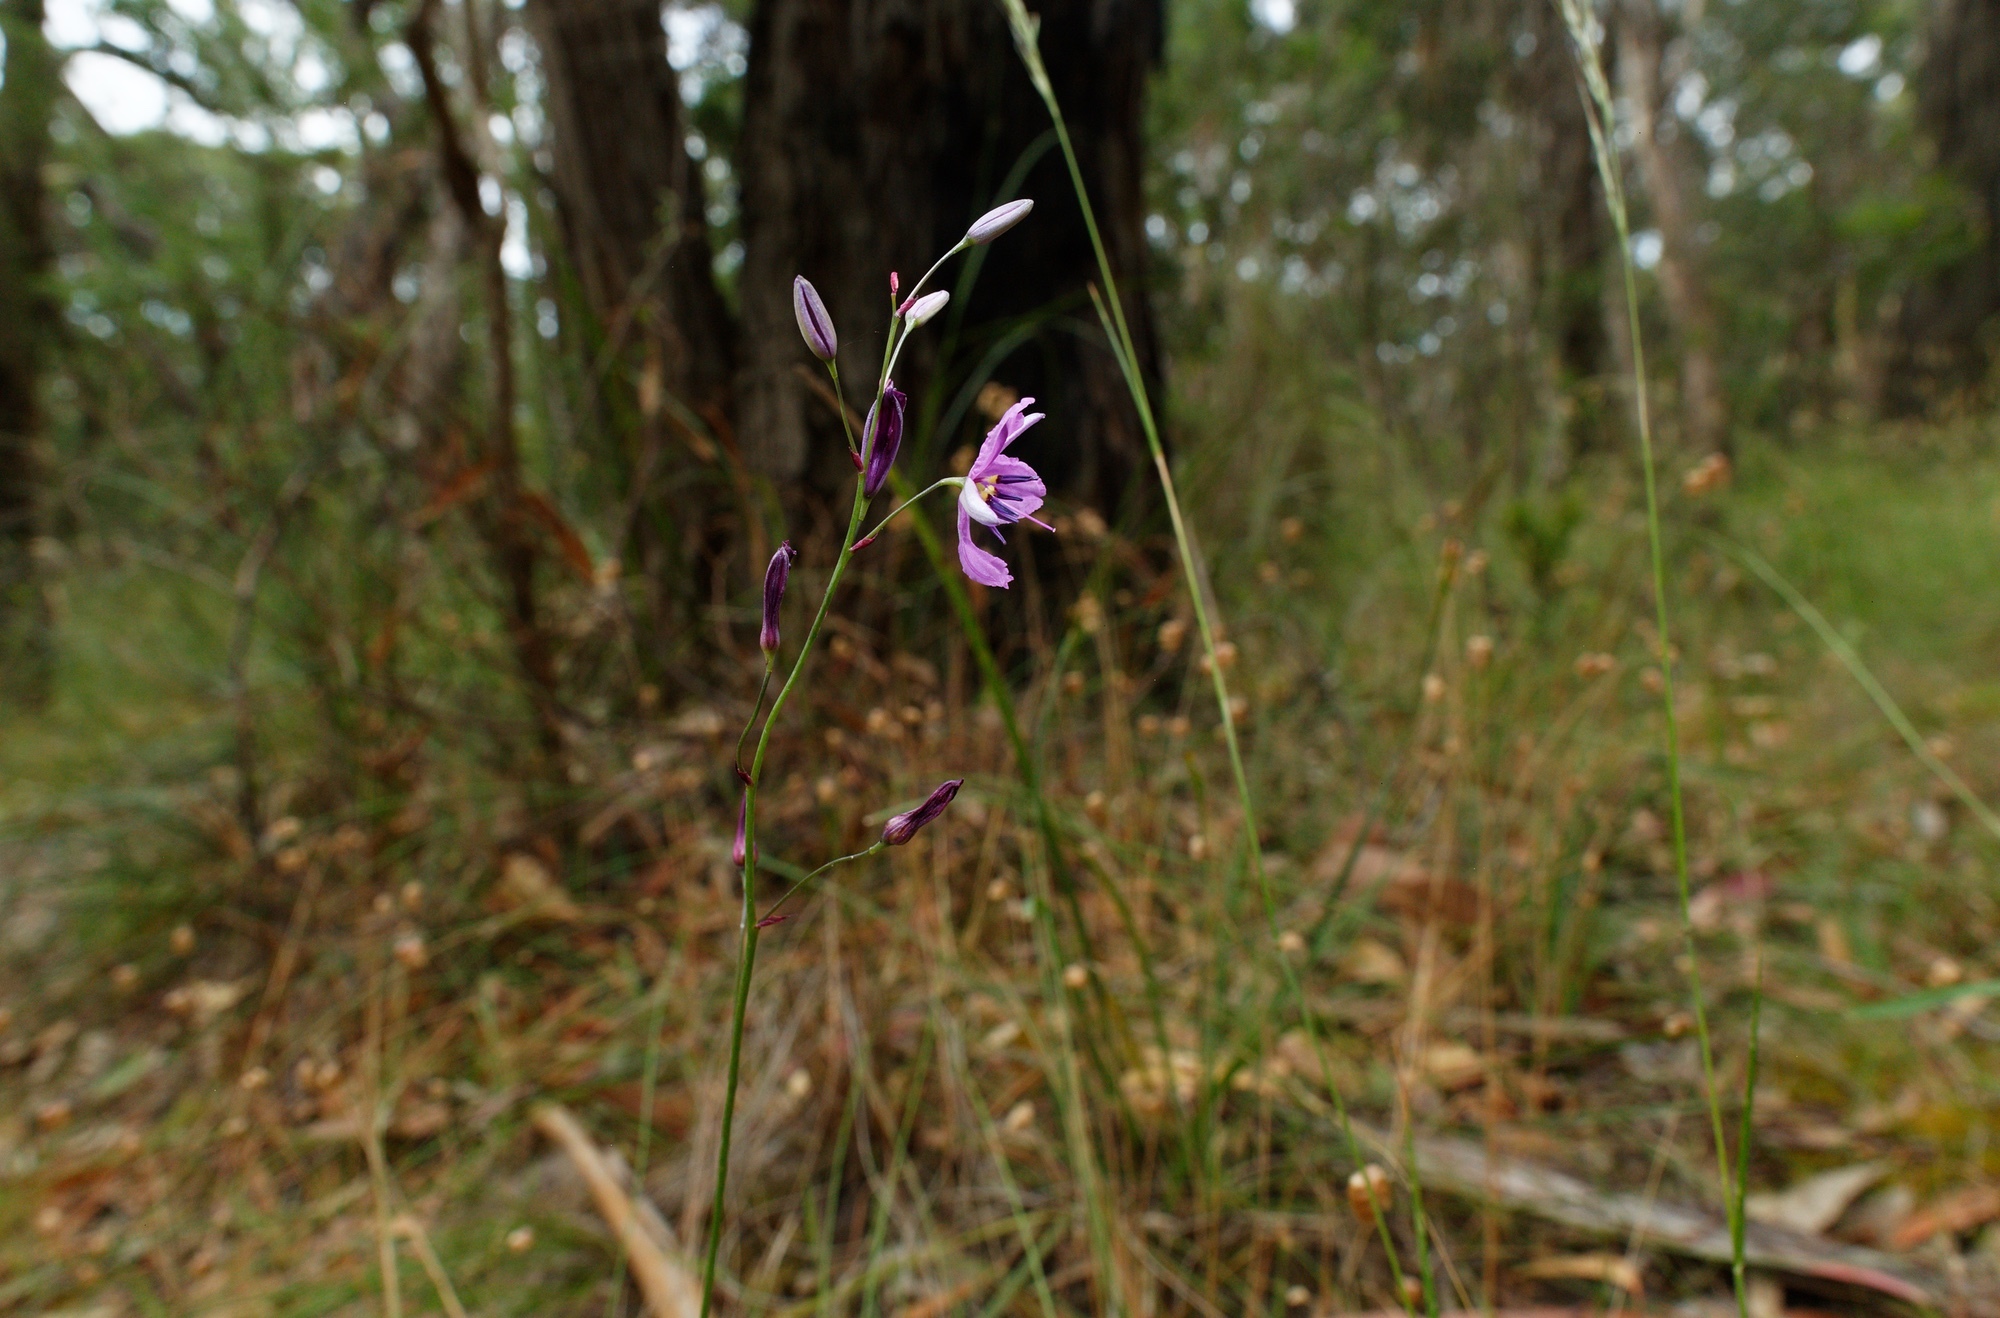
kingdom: Plantae
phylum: Tracheophyta
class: Liliopsida
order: Asparagales
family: Asparagaceae
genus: Arthropodium
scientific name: Arthropodium strictum
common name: Chocolate-lily
